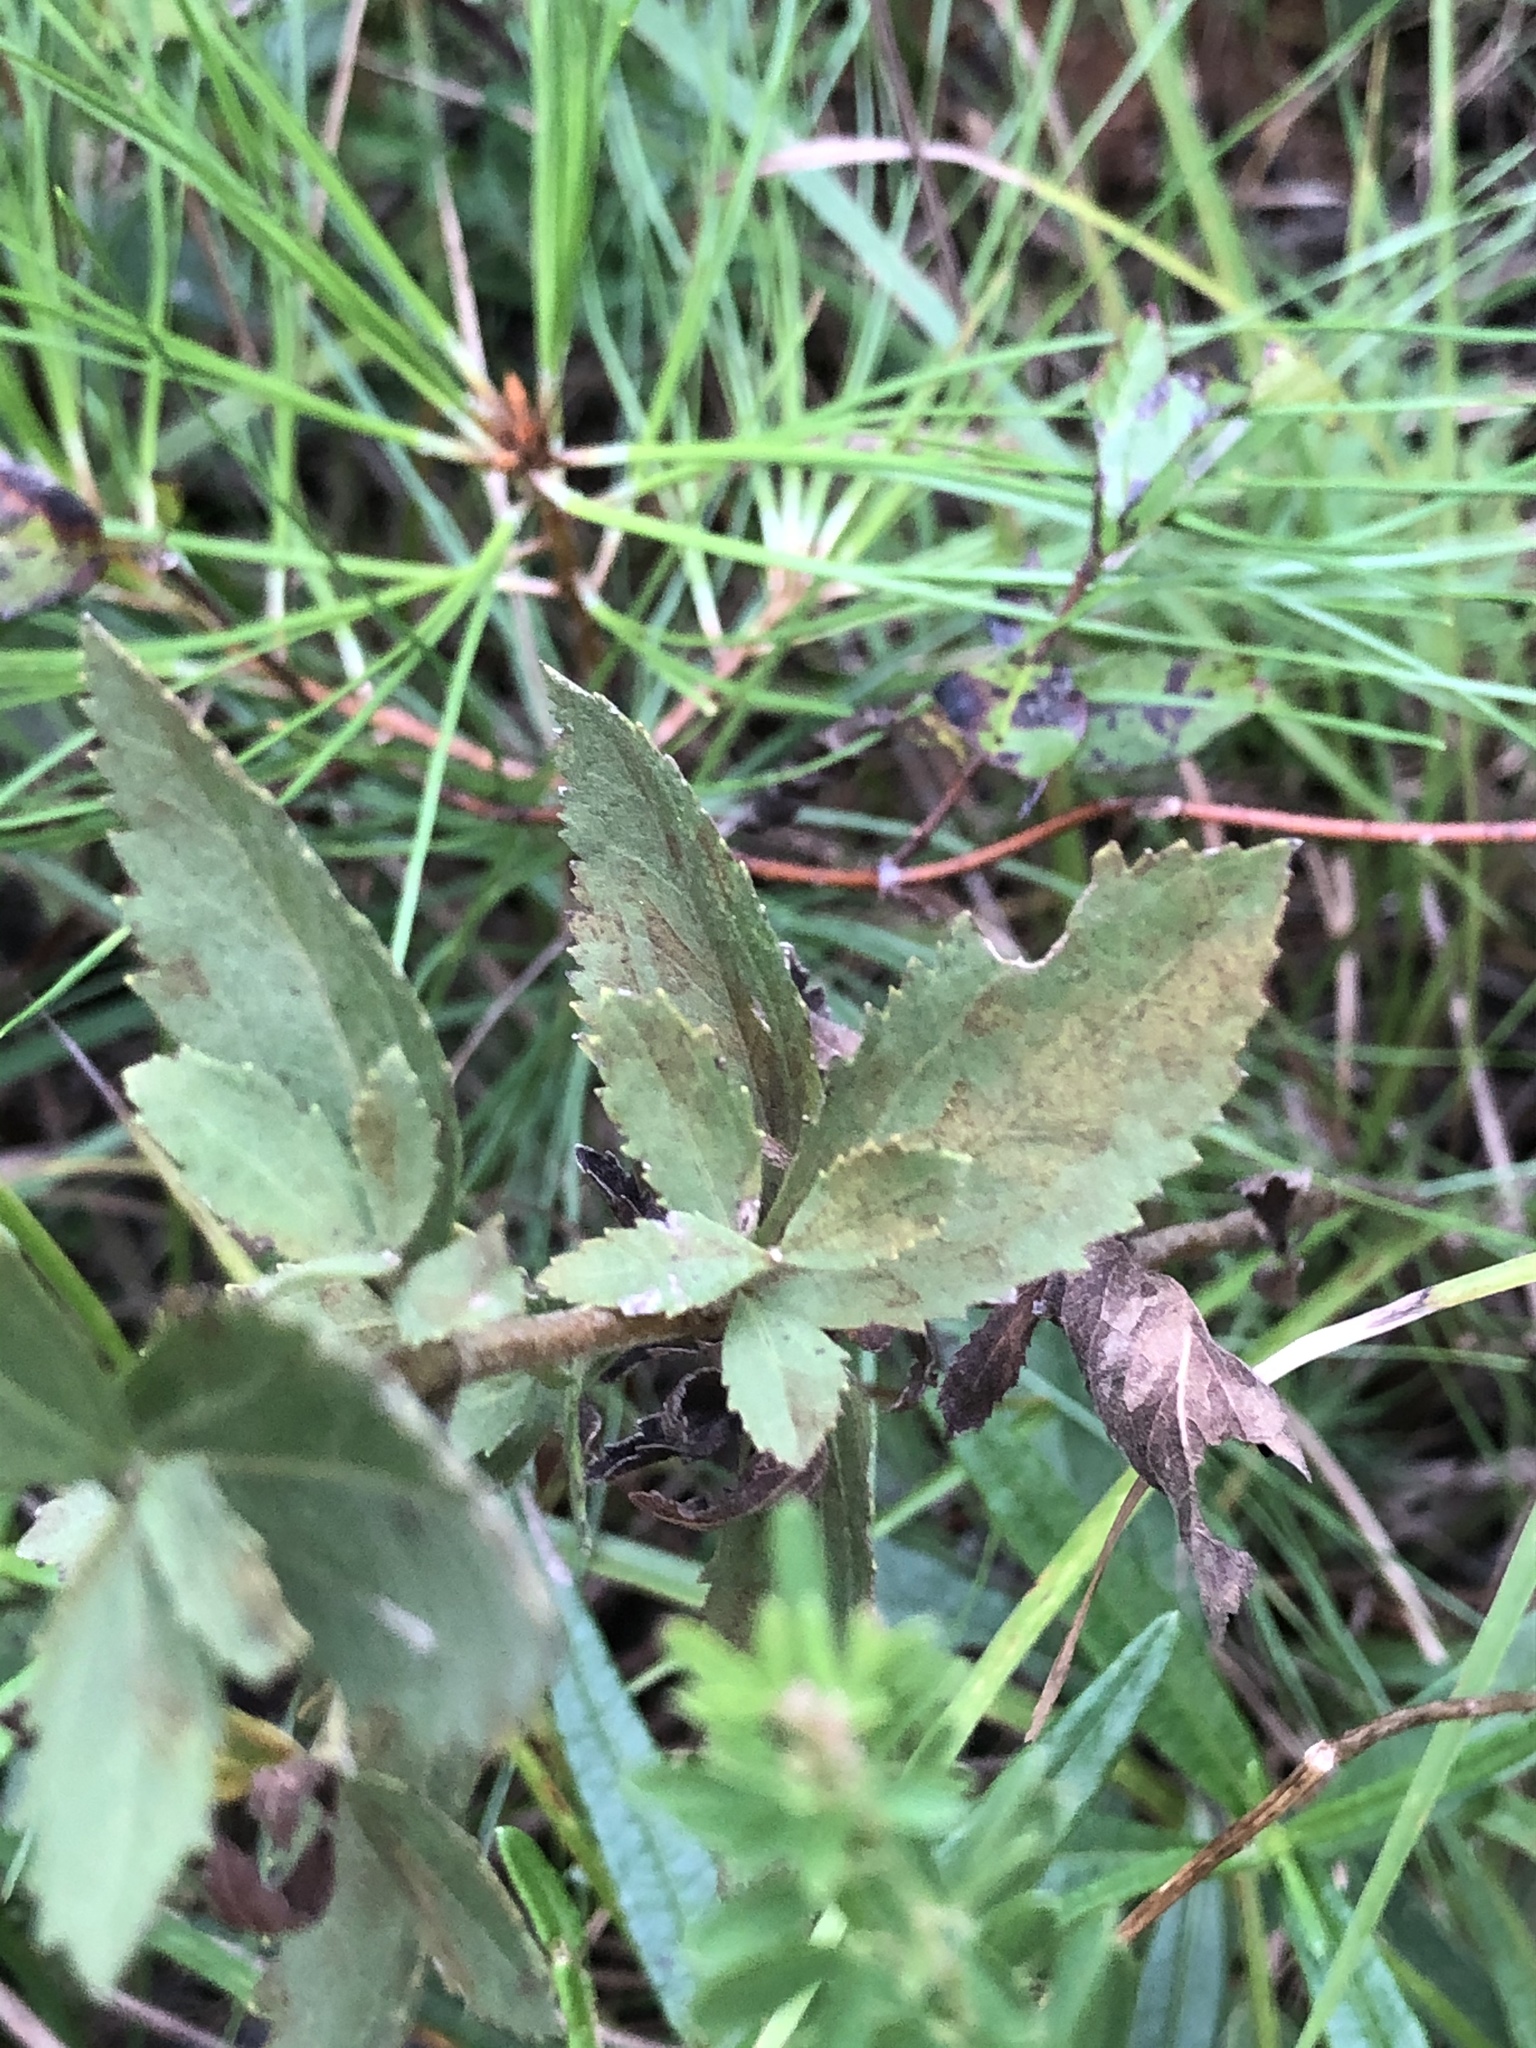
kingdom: Plantae
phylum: Tracheophyta
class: Magnoliopsida
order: Asterales
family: Asteraceae
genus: Eupatorium
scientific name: Eupatorium rotundifolium
